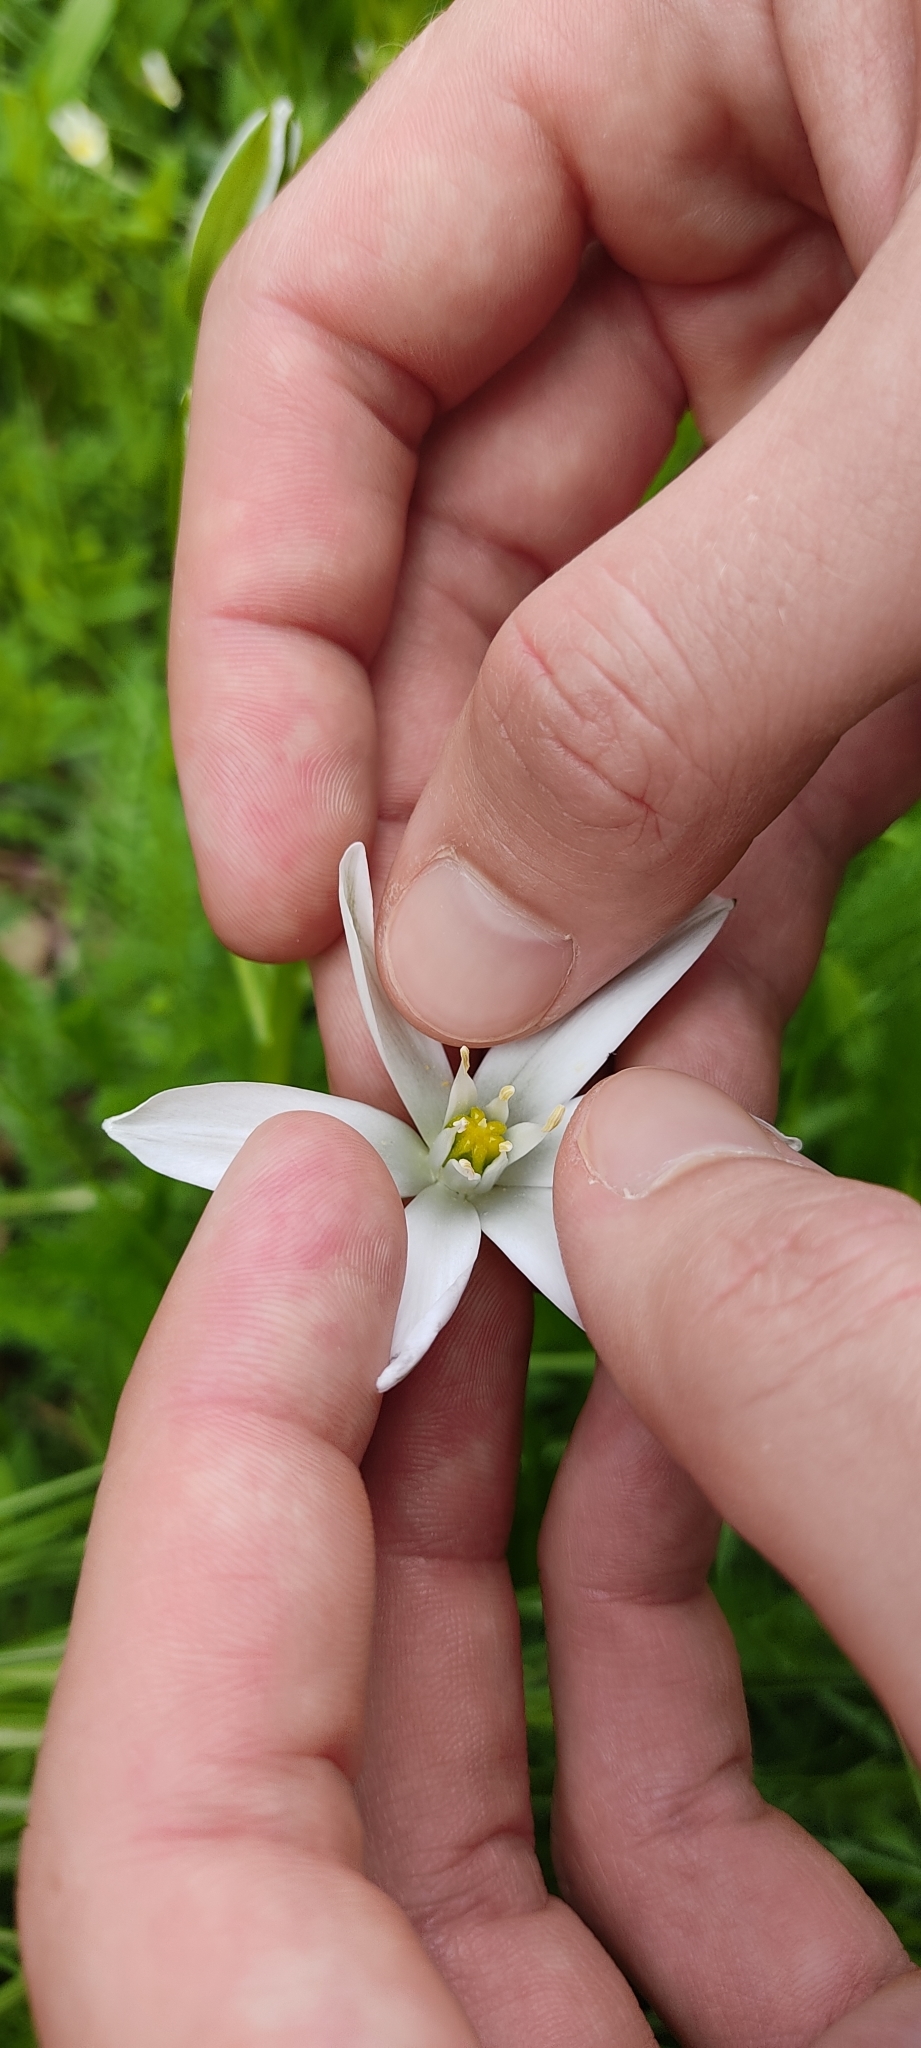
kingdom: Plantae
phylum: Tracheophyta
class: Liliopsida
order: Asparagales
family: Asparagaceae
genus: Ornithogalum
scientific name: Ornithogalum umbellatum
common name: Garden star-of-bethlehem
